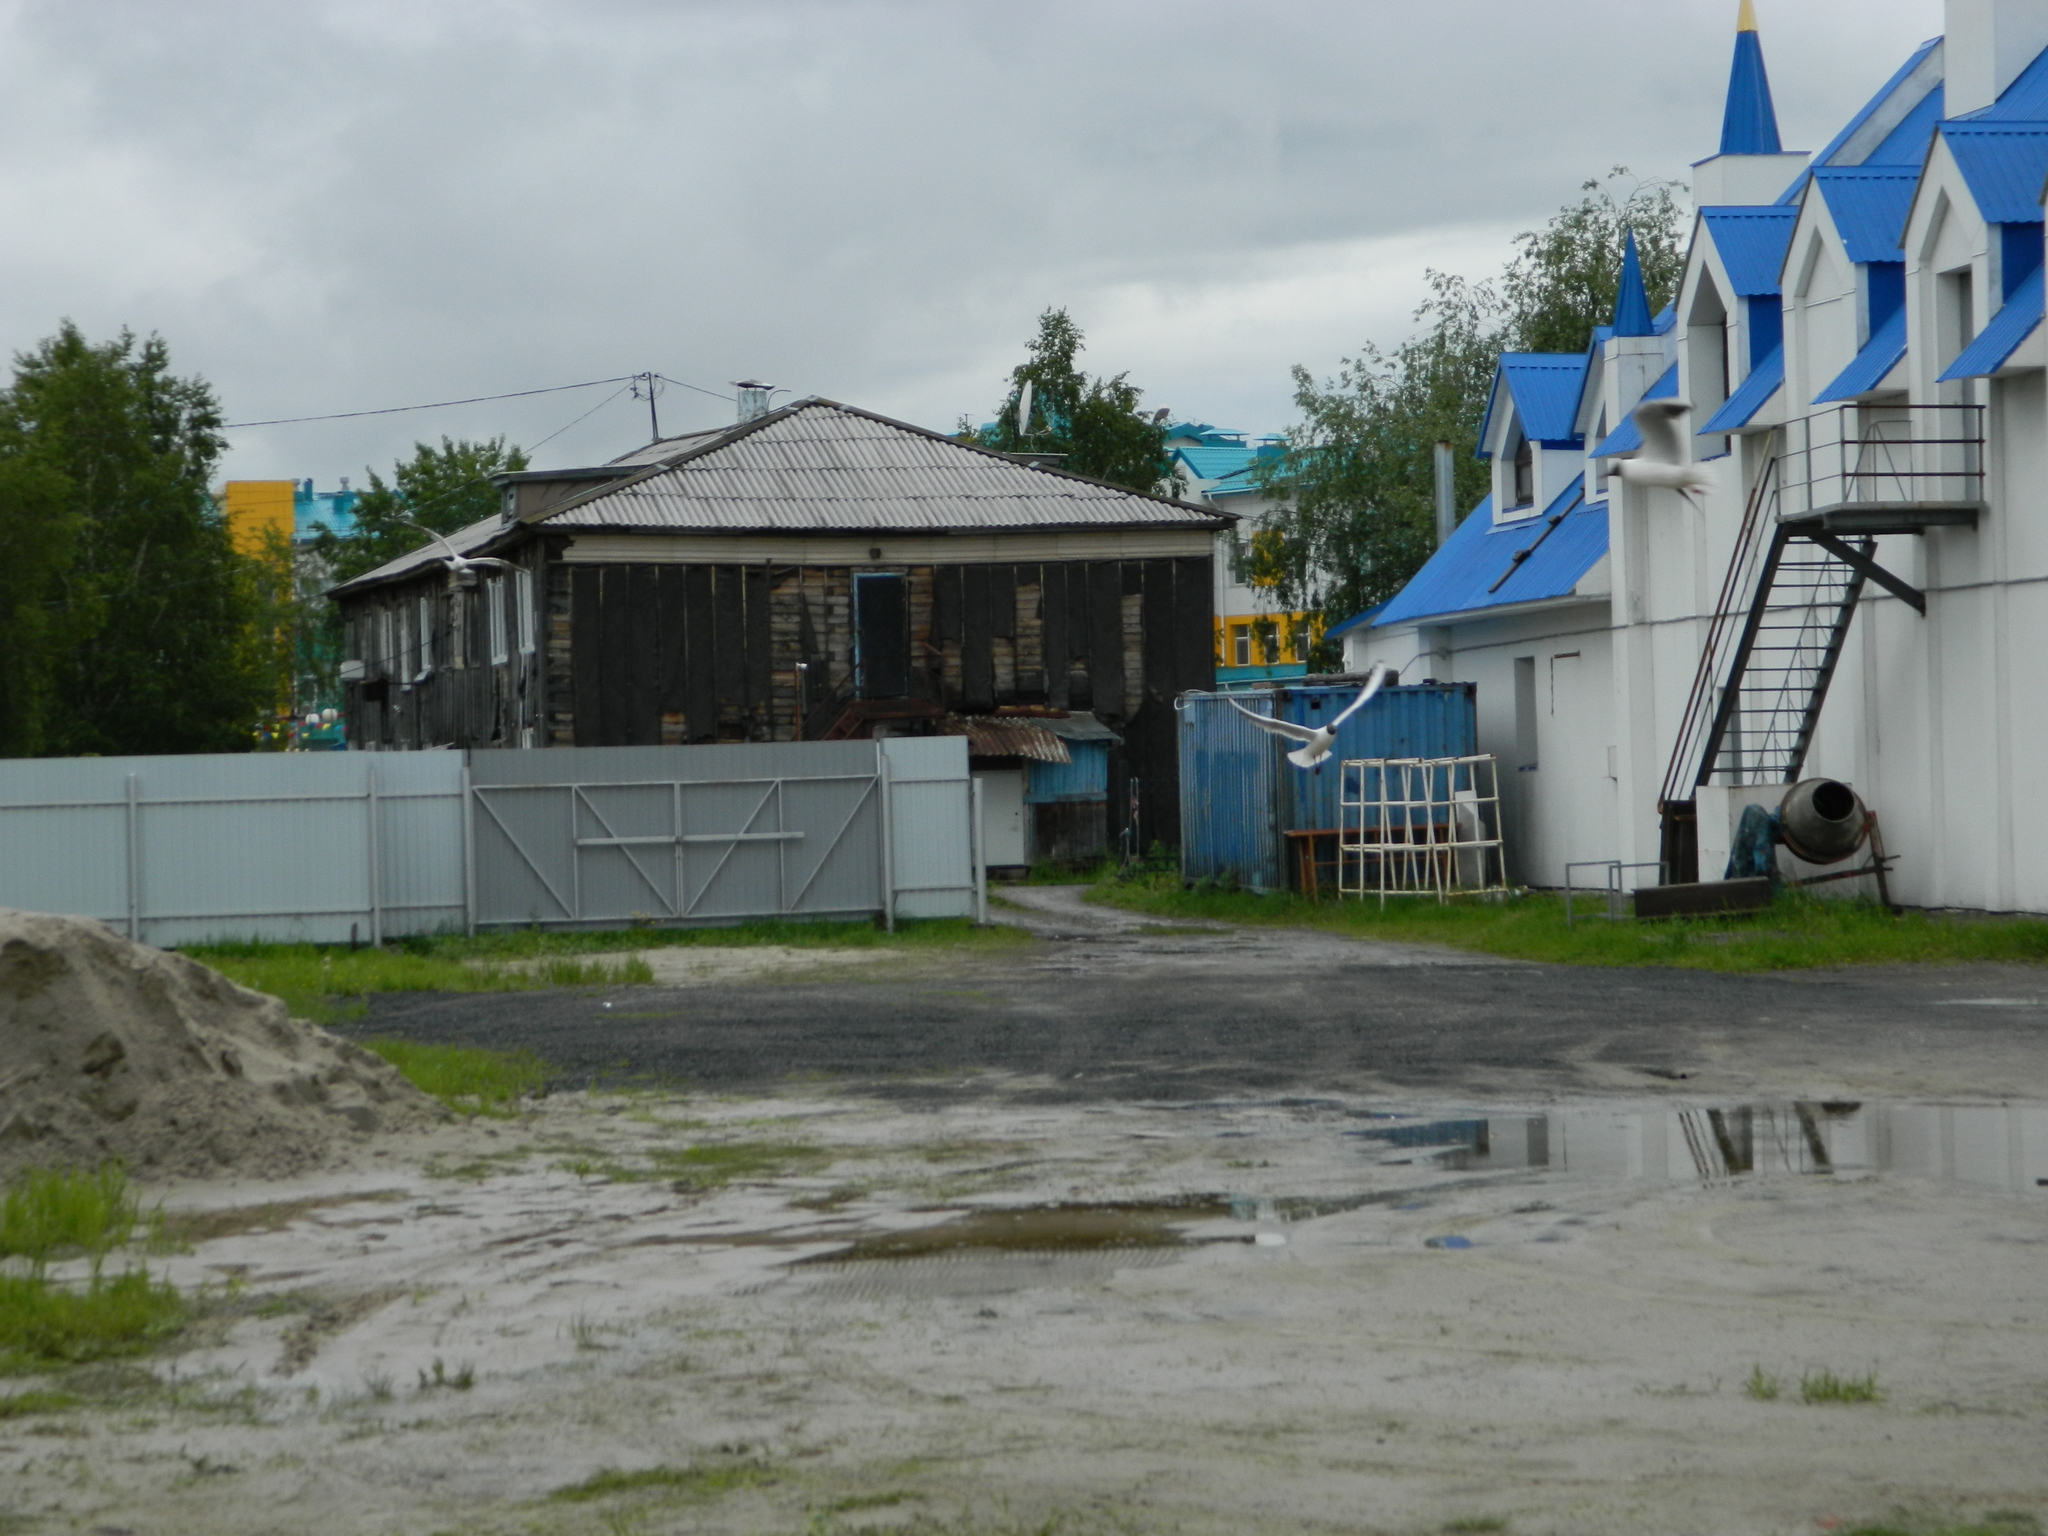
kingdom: Animalia
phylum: Chordata
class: Aves
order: Charadriiformes
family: Laridae
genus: Chroicocephalus
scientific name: Chroicocephalus ridibundus
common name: Black-headed gull
